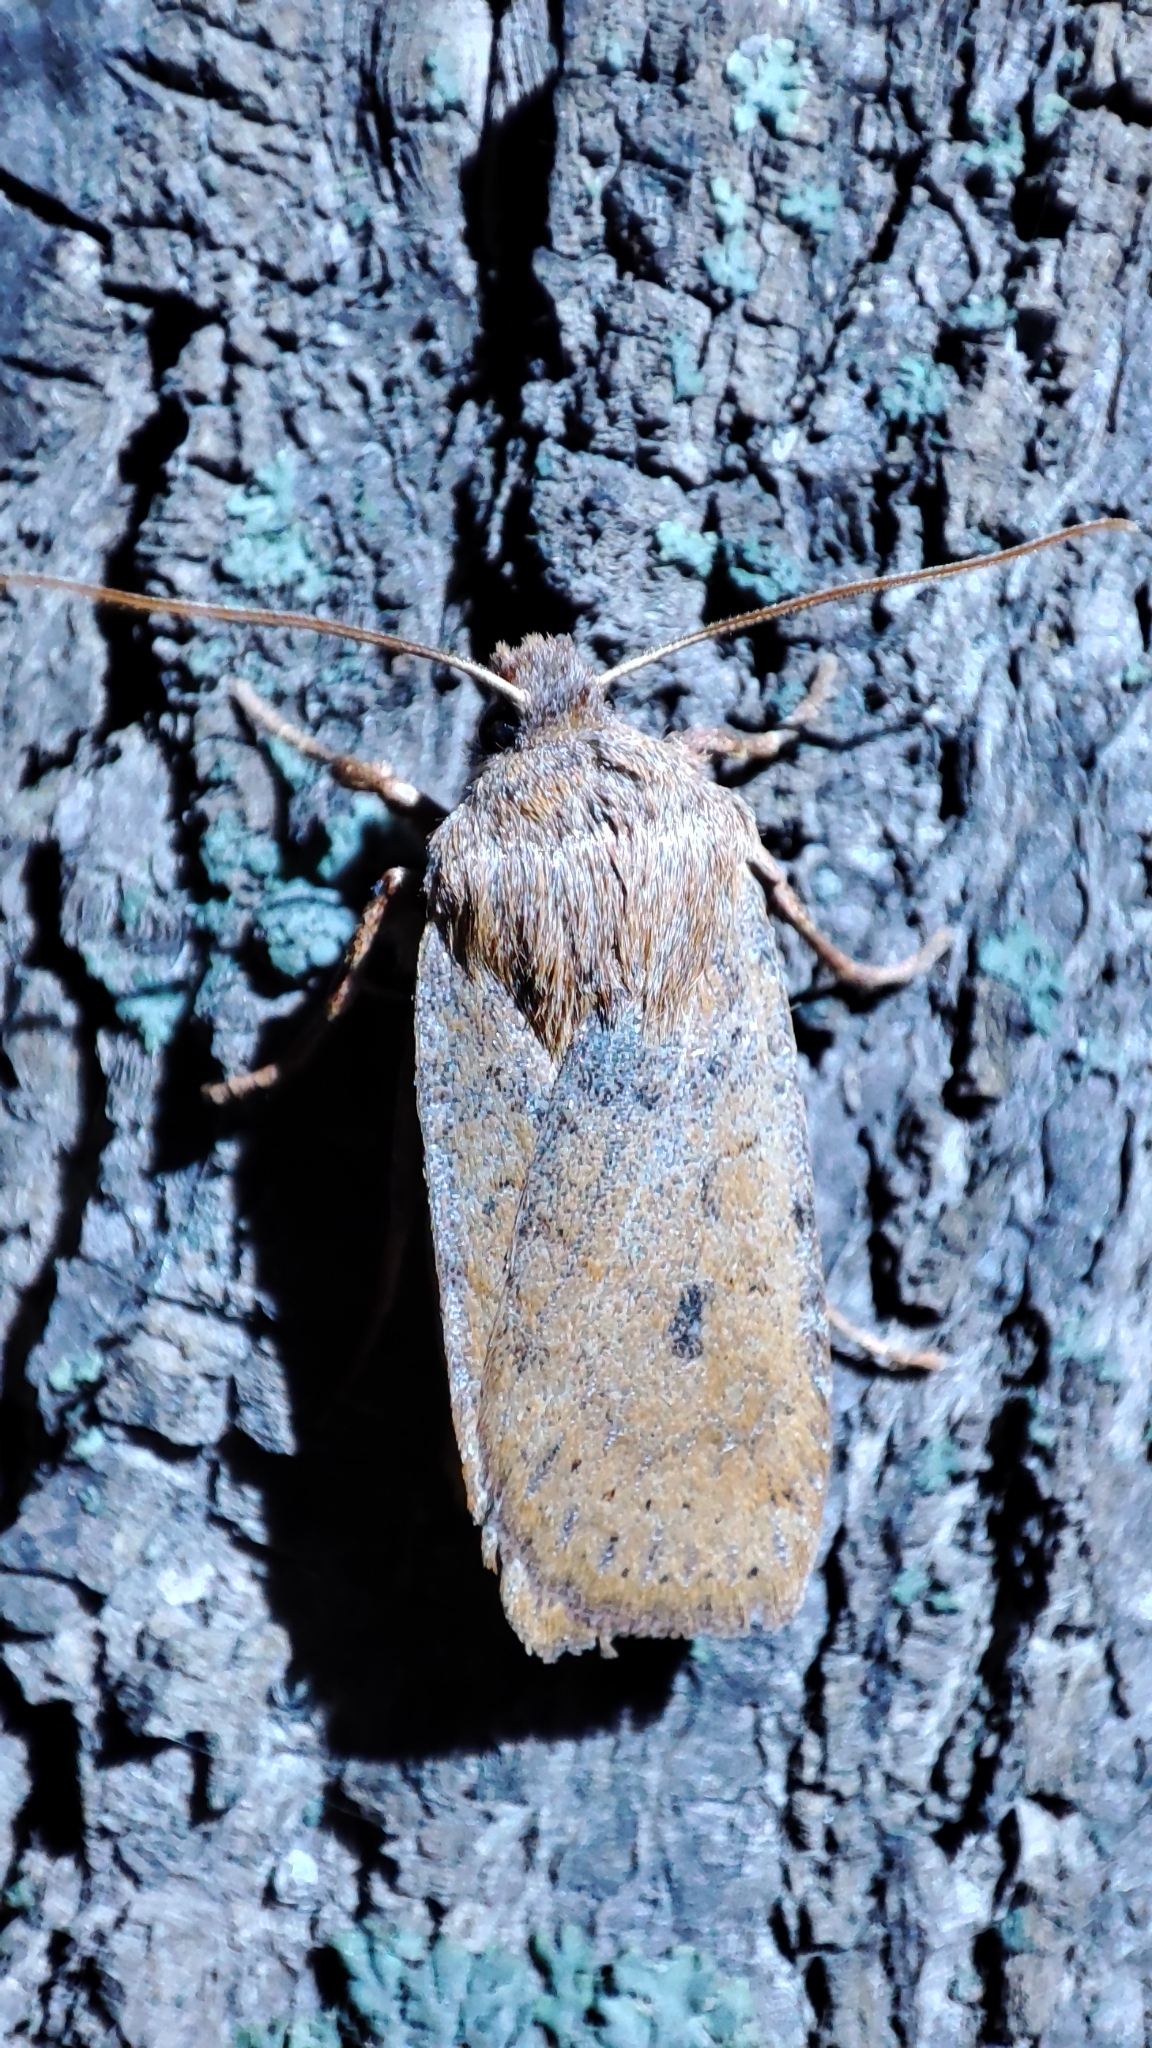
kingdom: Animalia
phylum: Arthropoda
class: Insecta
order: Lepidoptera
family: Noctuidae
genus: Conistra
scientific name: Conistra vaccinii
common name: Chestnut
